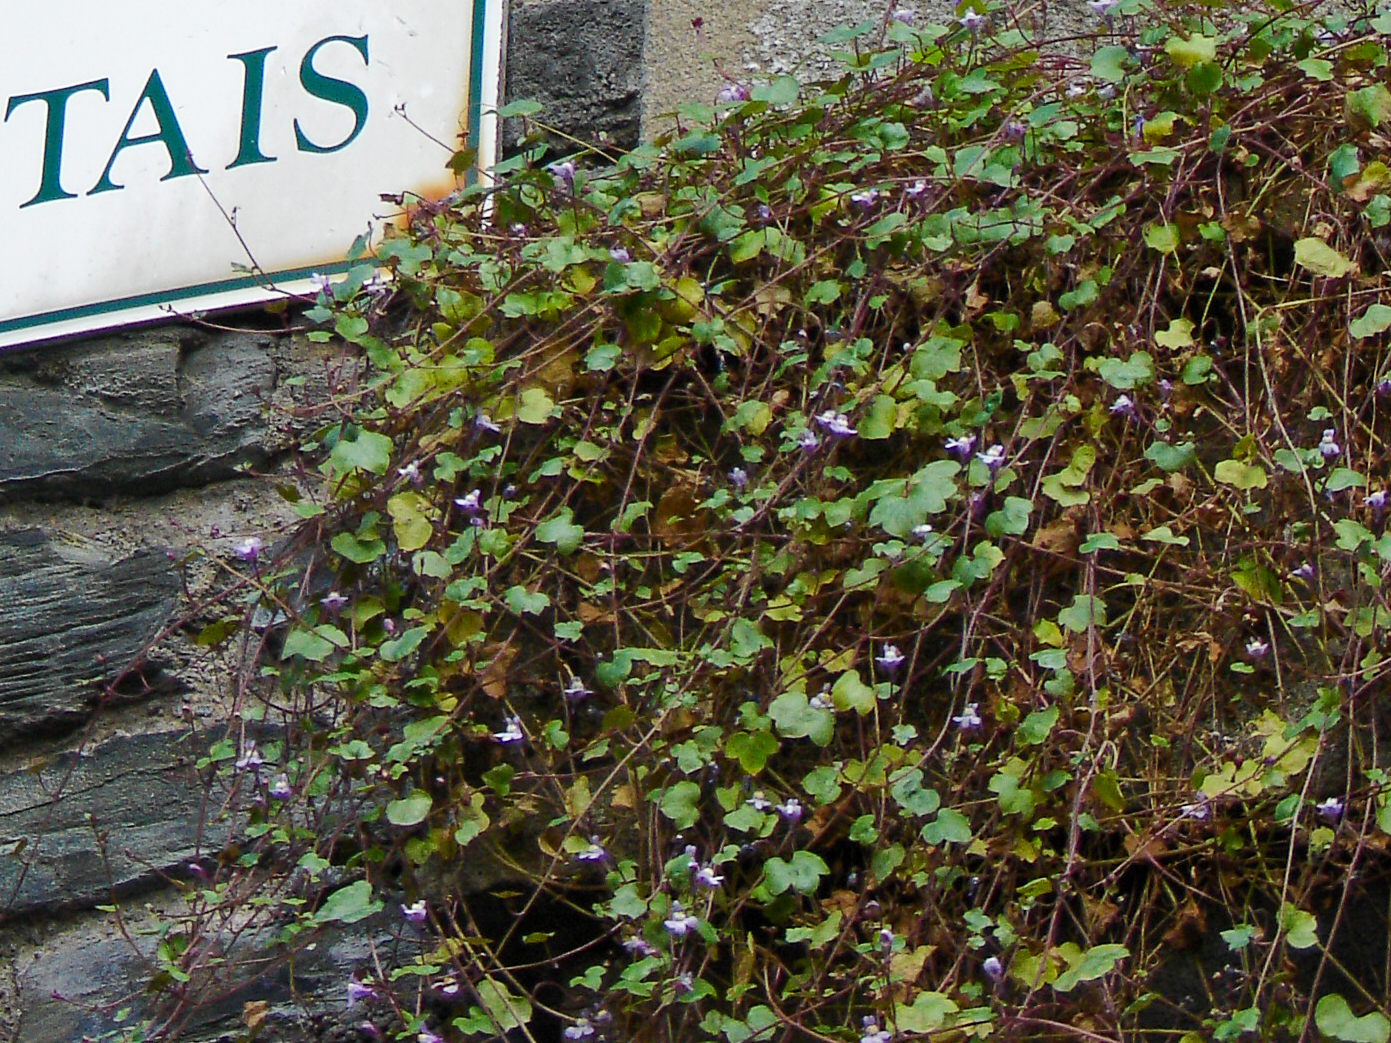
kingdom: Plantae
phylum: Tracheophyta
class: Magnoliopsida
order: Lamiales
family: Plantaginaceae
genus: Cymbalaria
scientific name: Cymbalaria muralis
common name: Ivy-leaved toadflax
